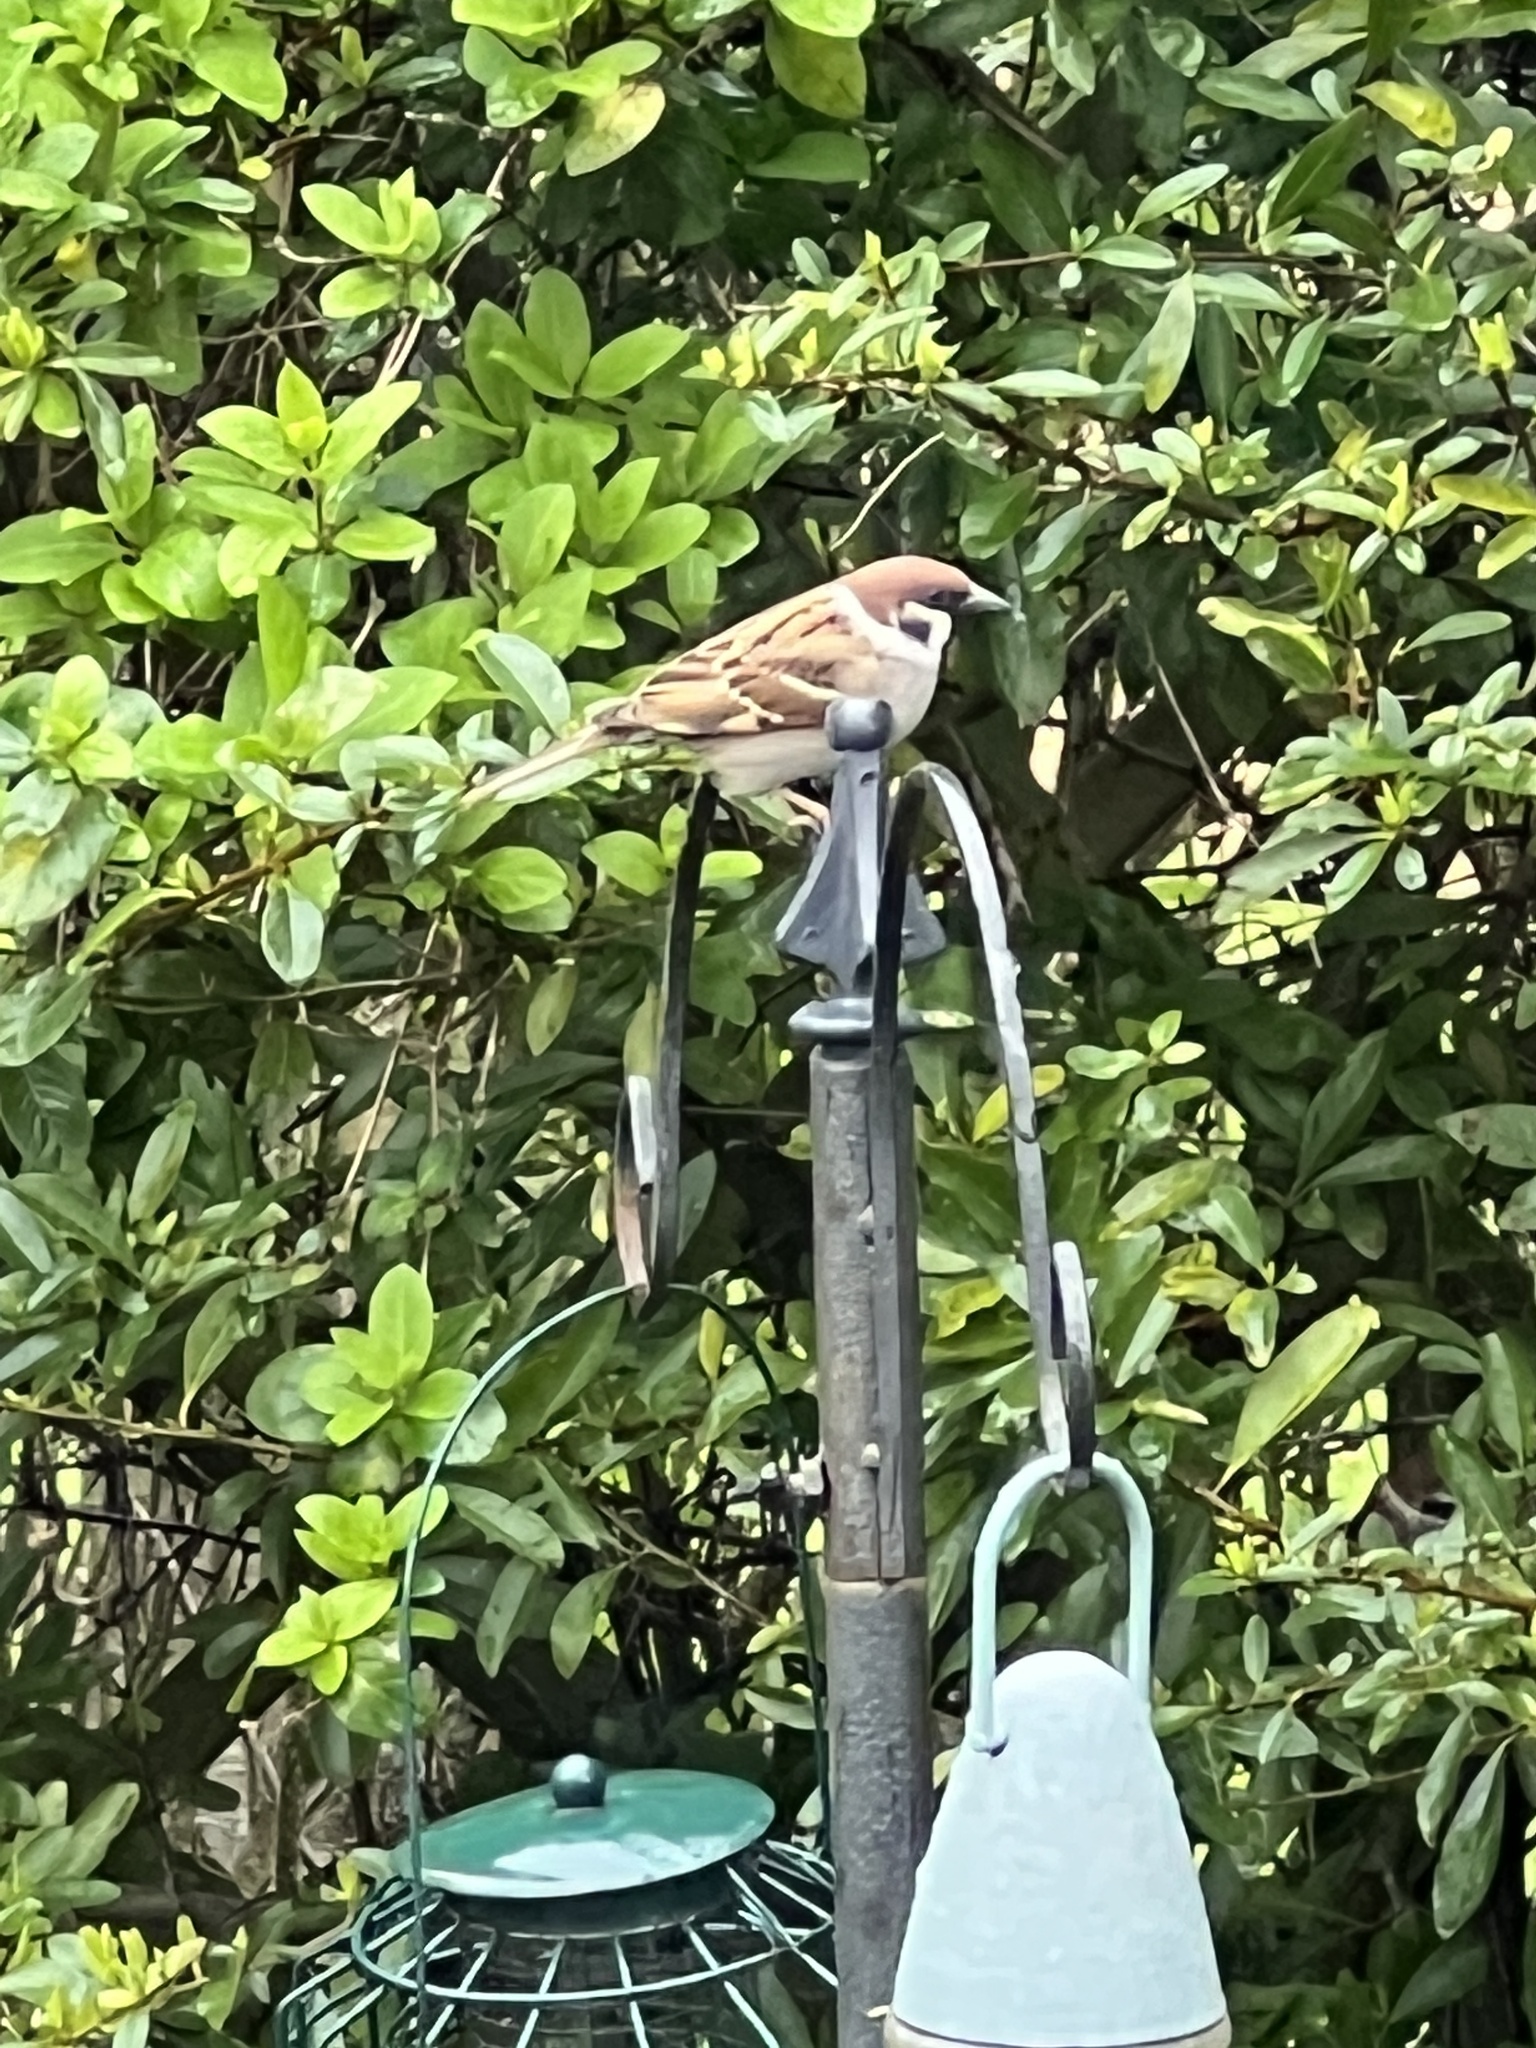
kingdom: Animalia
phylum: Chordata
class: Aves
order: Passeriformes
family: Passeridae
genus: Passer
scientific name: Passer montanus
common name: Eurasian tree sparrow
